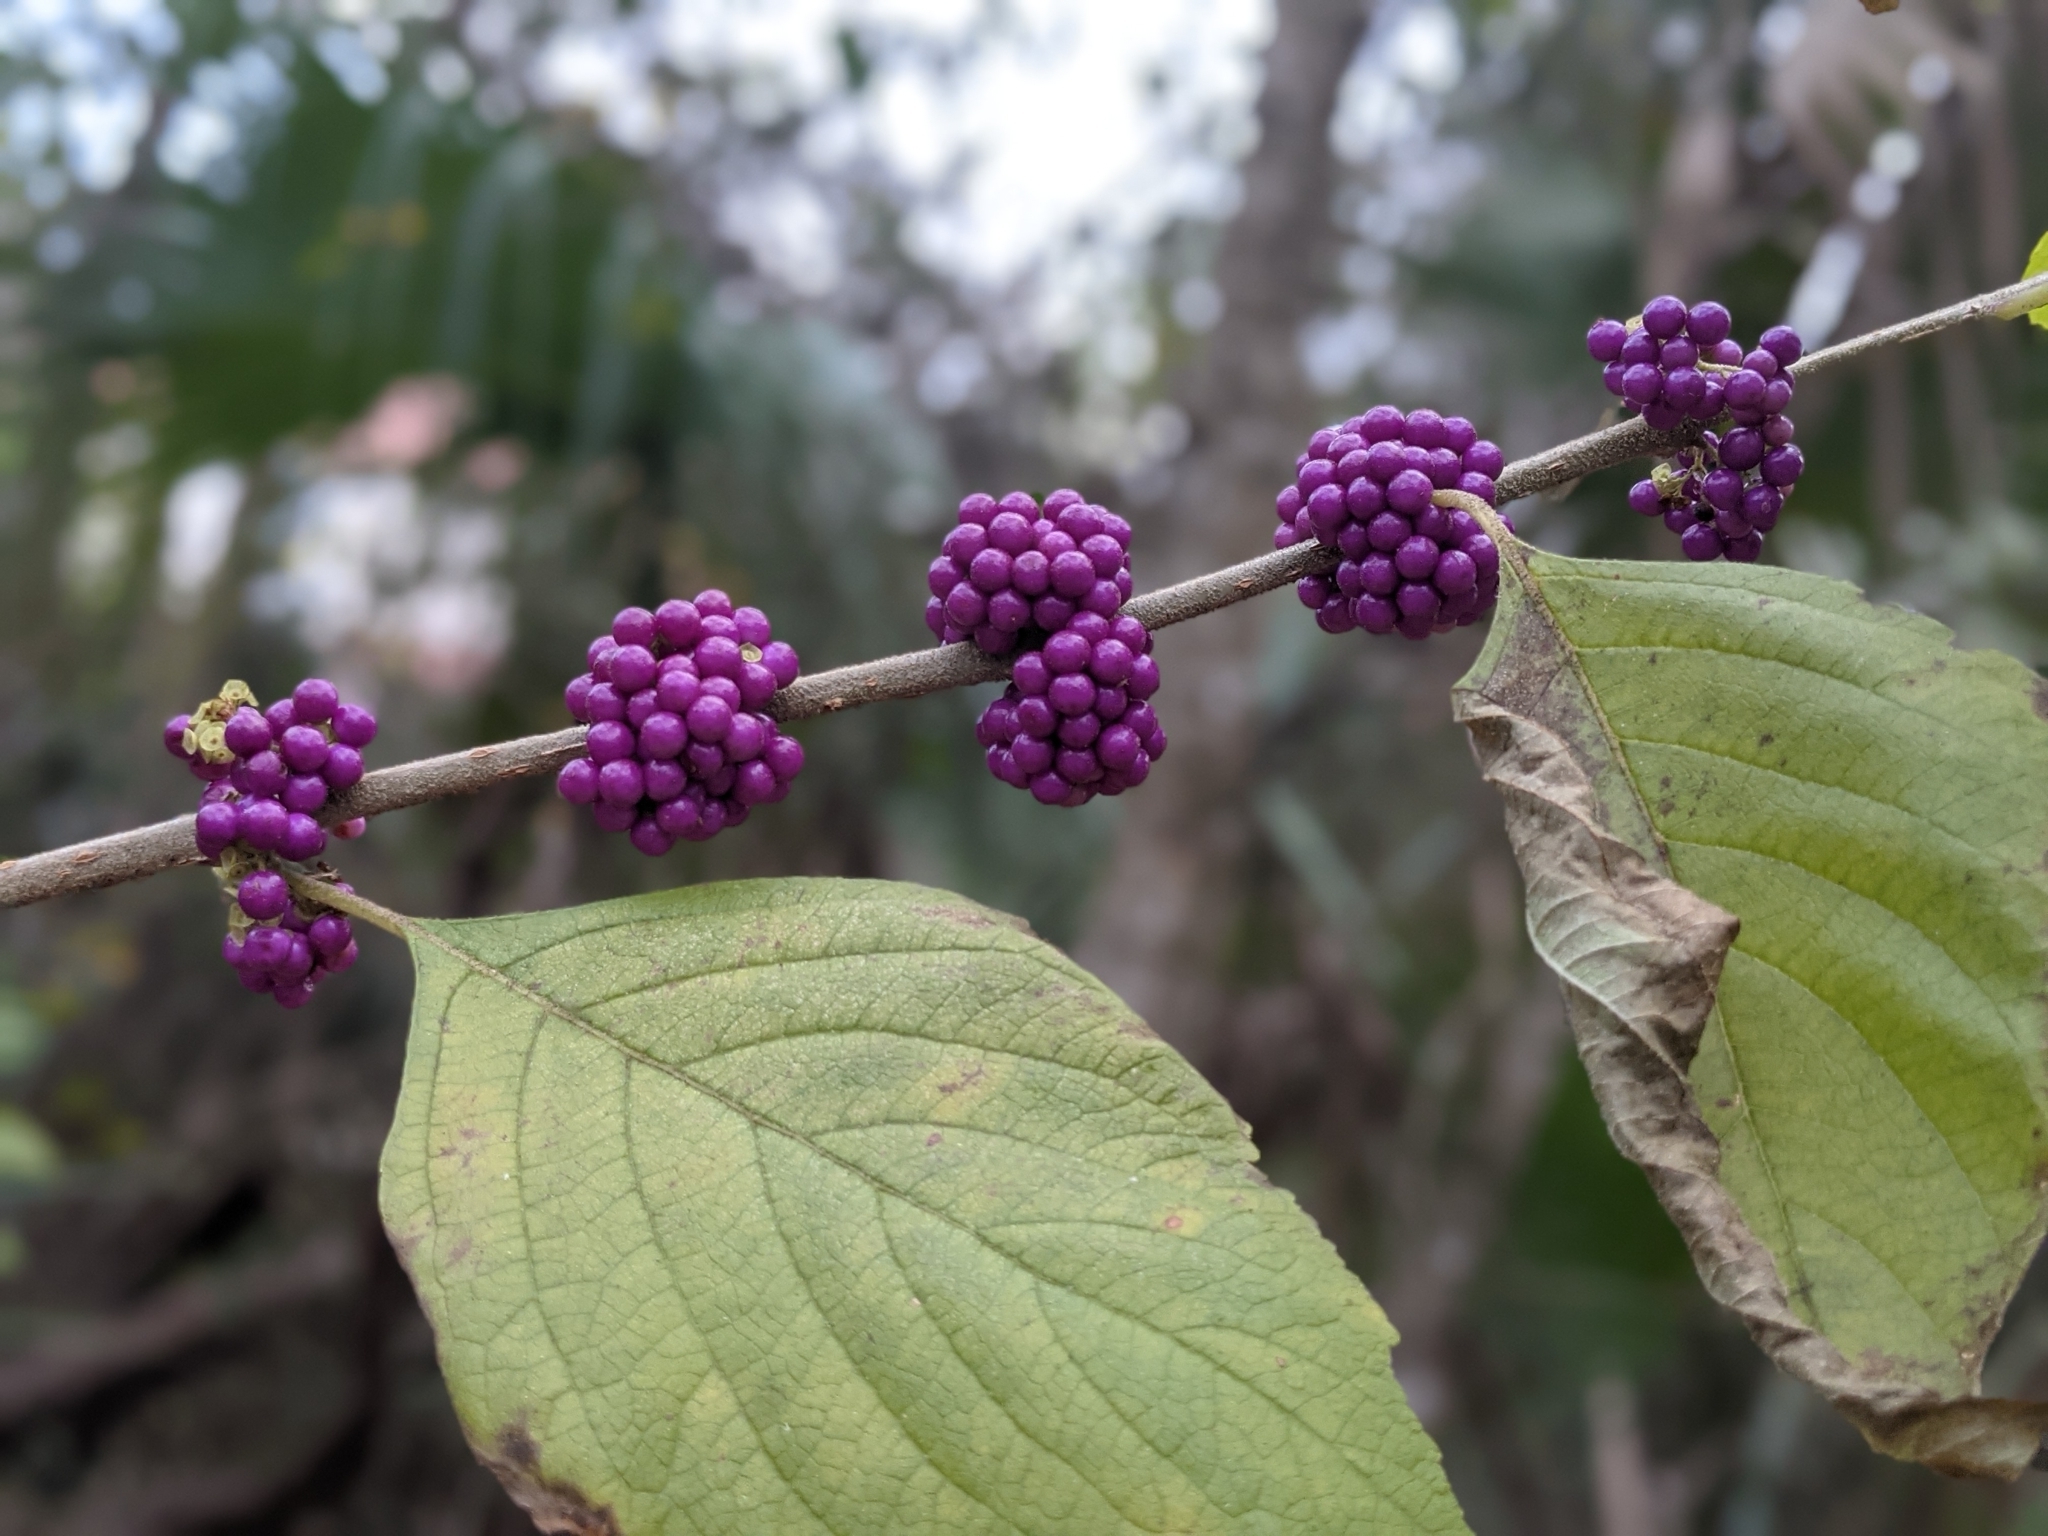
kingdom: Plantae
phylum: Tracheophyta
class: Magnoliopsida
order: Lamiales
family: Lamiaceae
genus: Callicarpa
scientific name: Callicarpa americana
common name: American beautyberry
